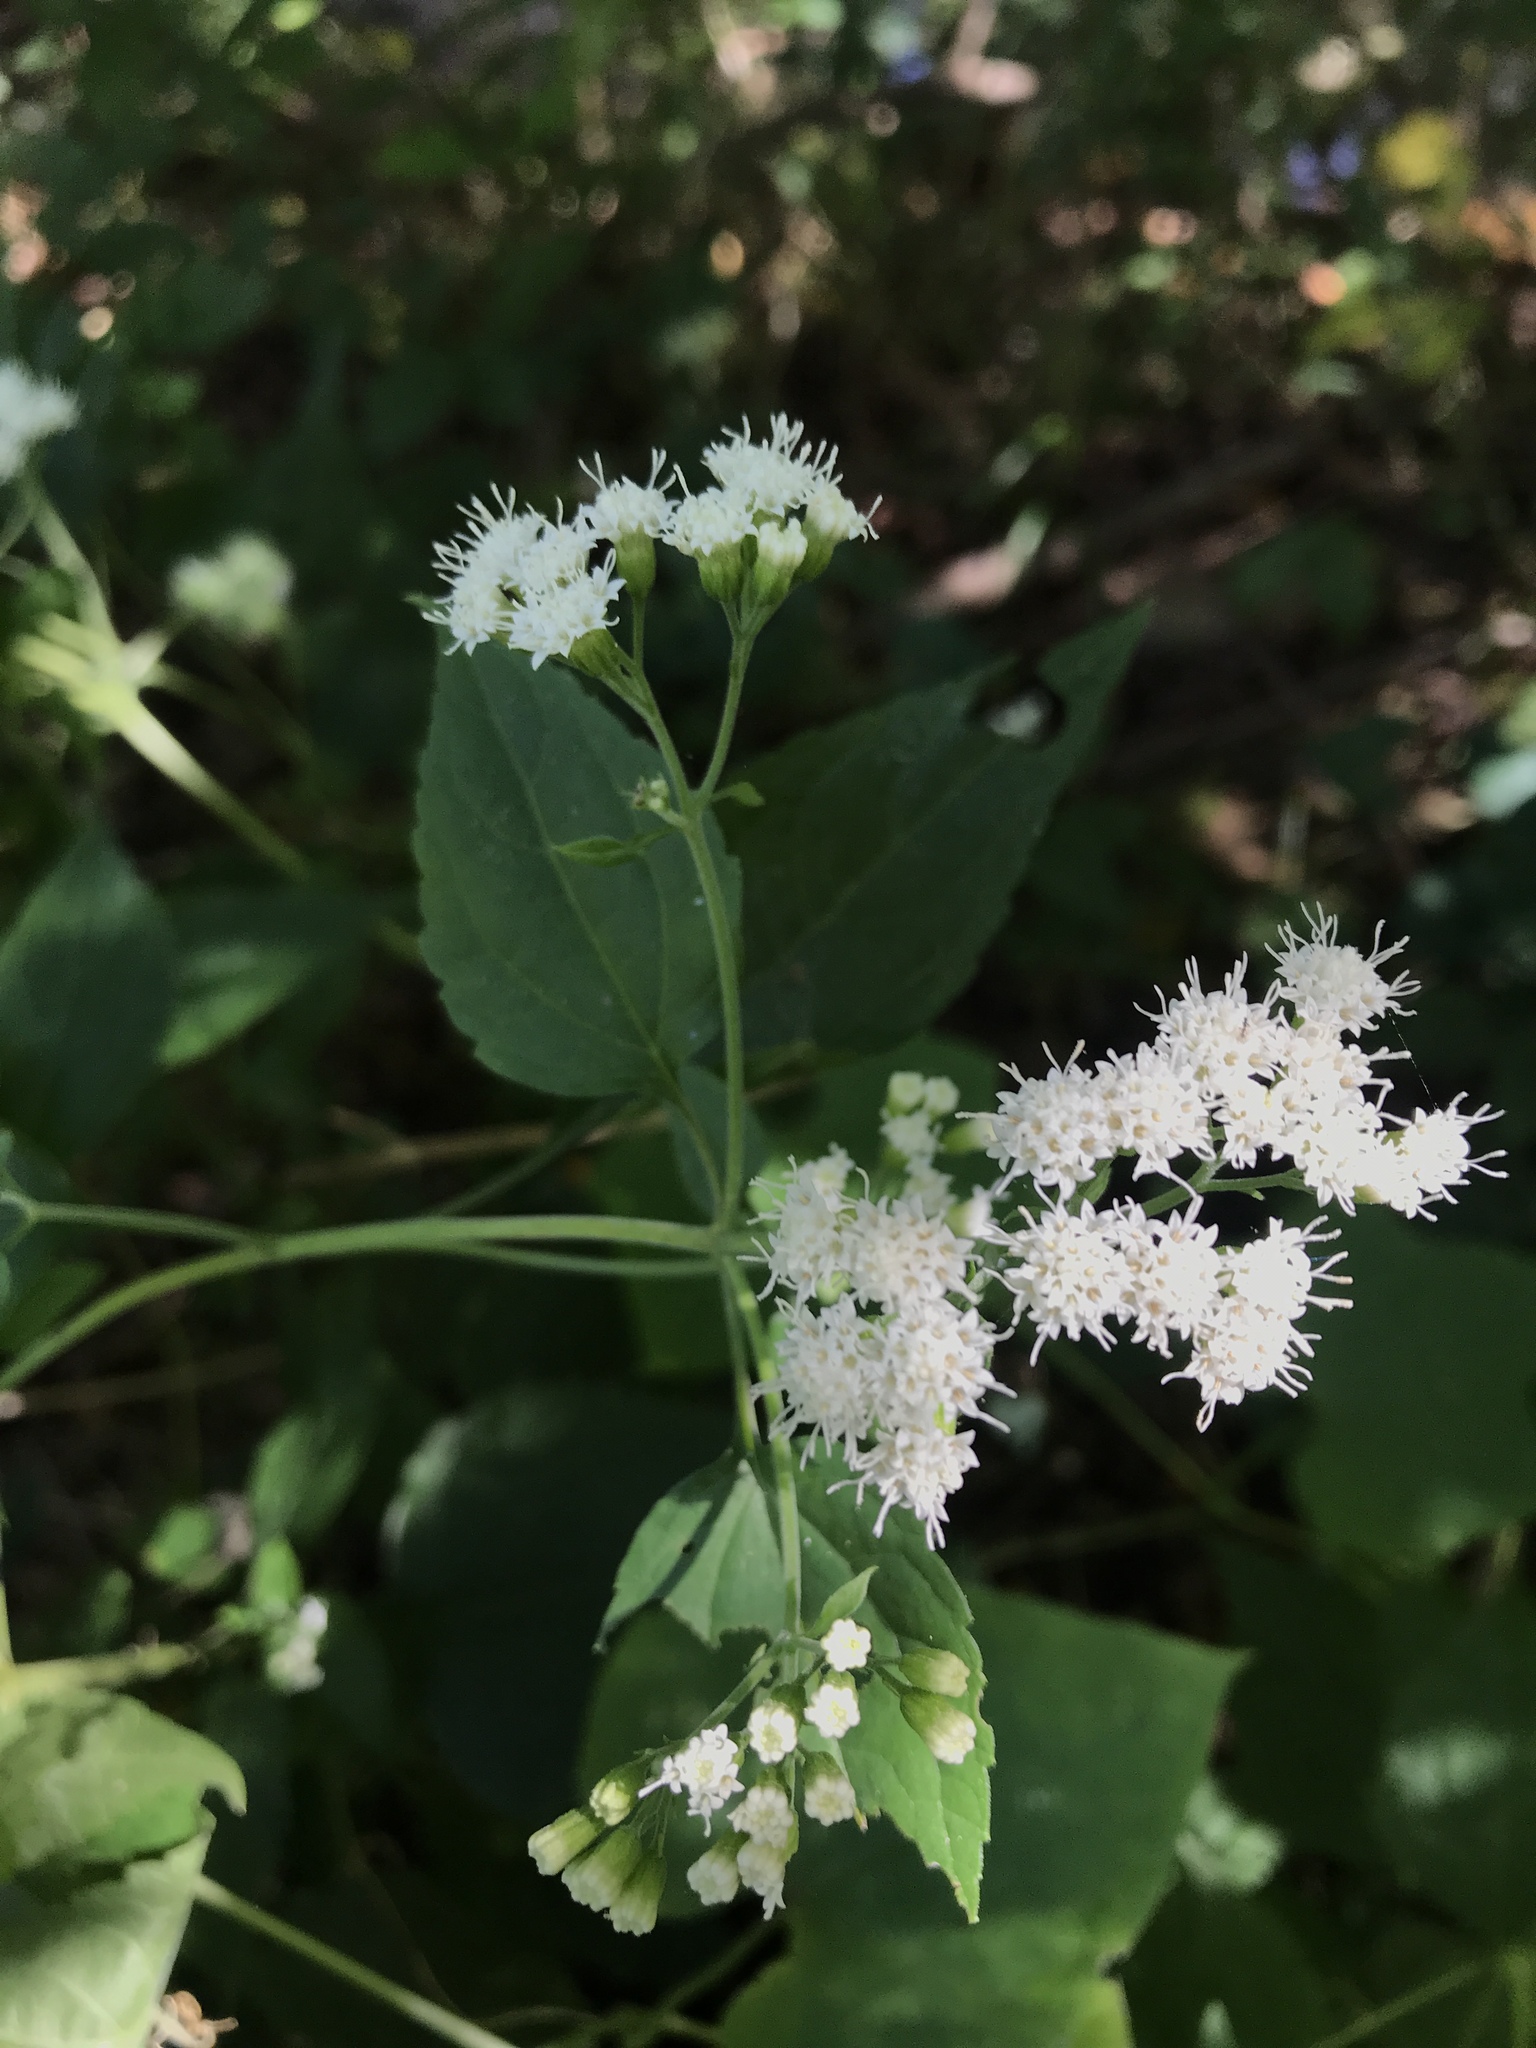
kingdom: Plantae
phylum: Tracheophyta
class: Magnoliopsida
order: Asterales
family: Asteraceae
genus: Ageratina
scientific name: Ageratina altissima
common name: White snakeroot
